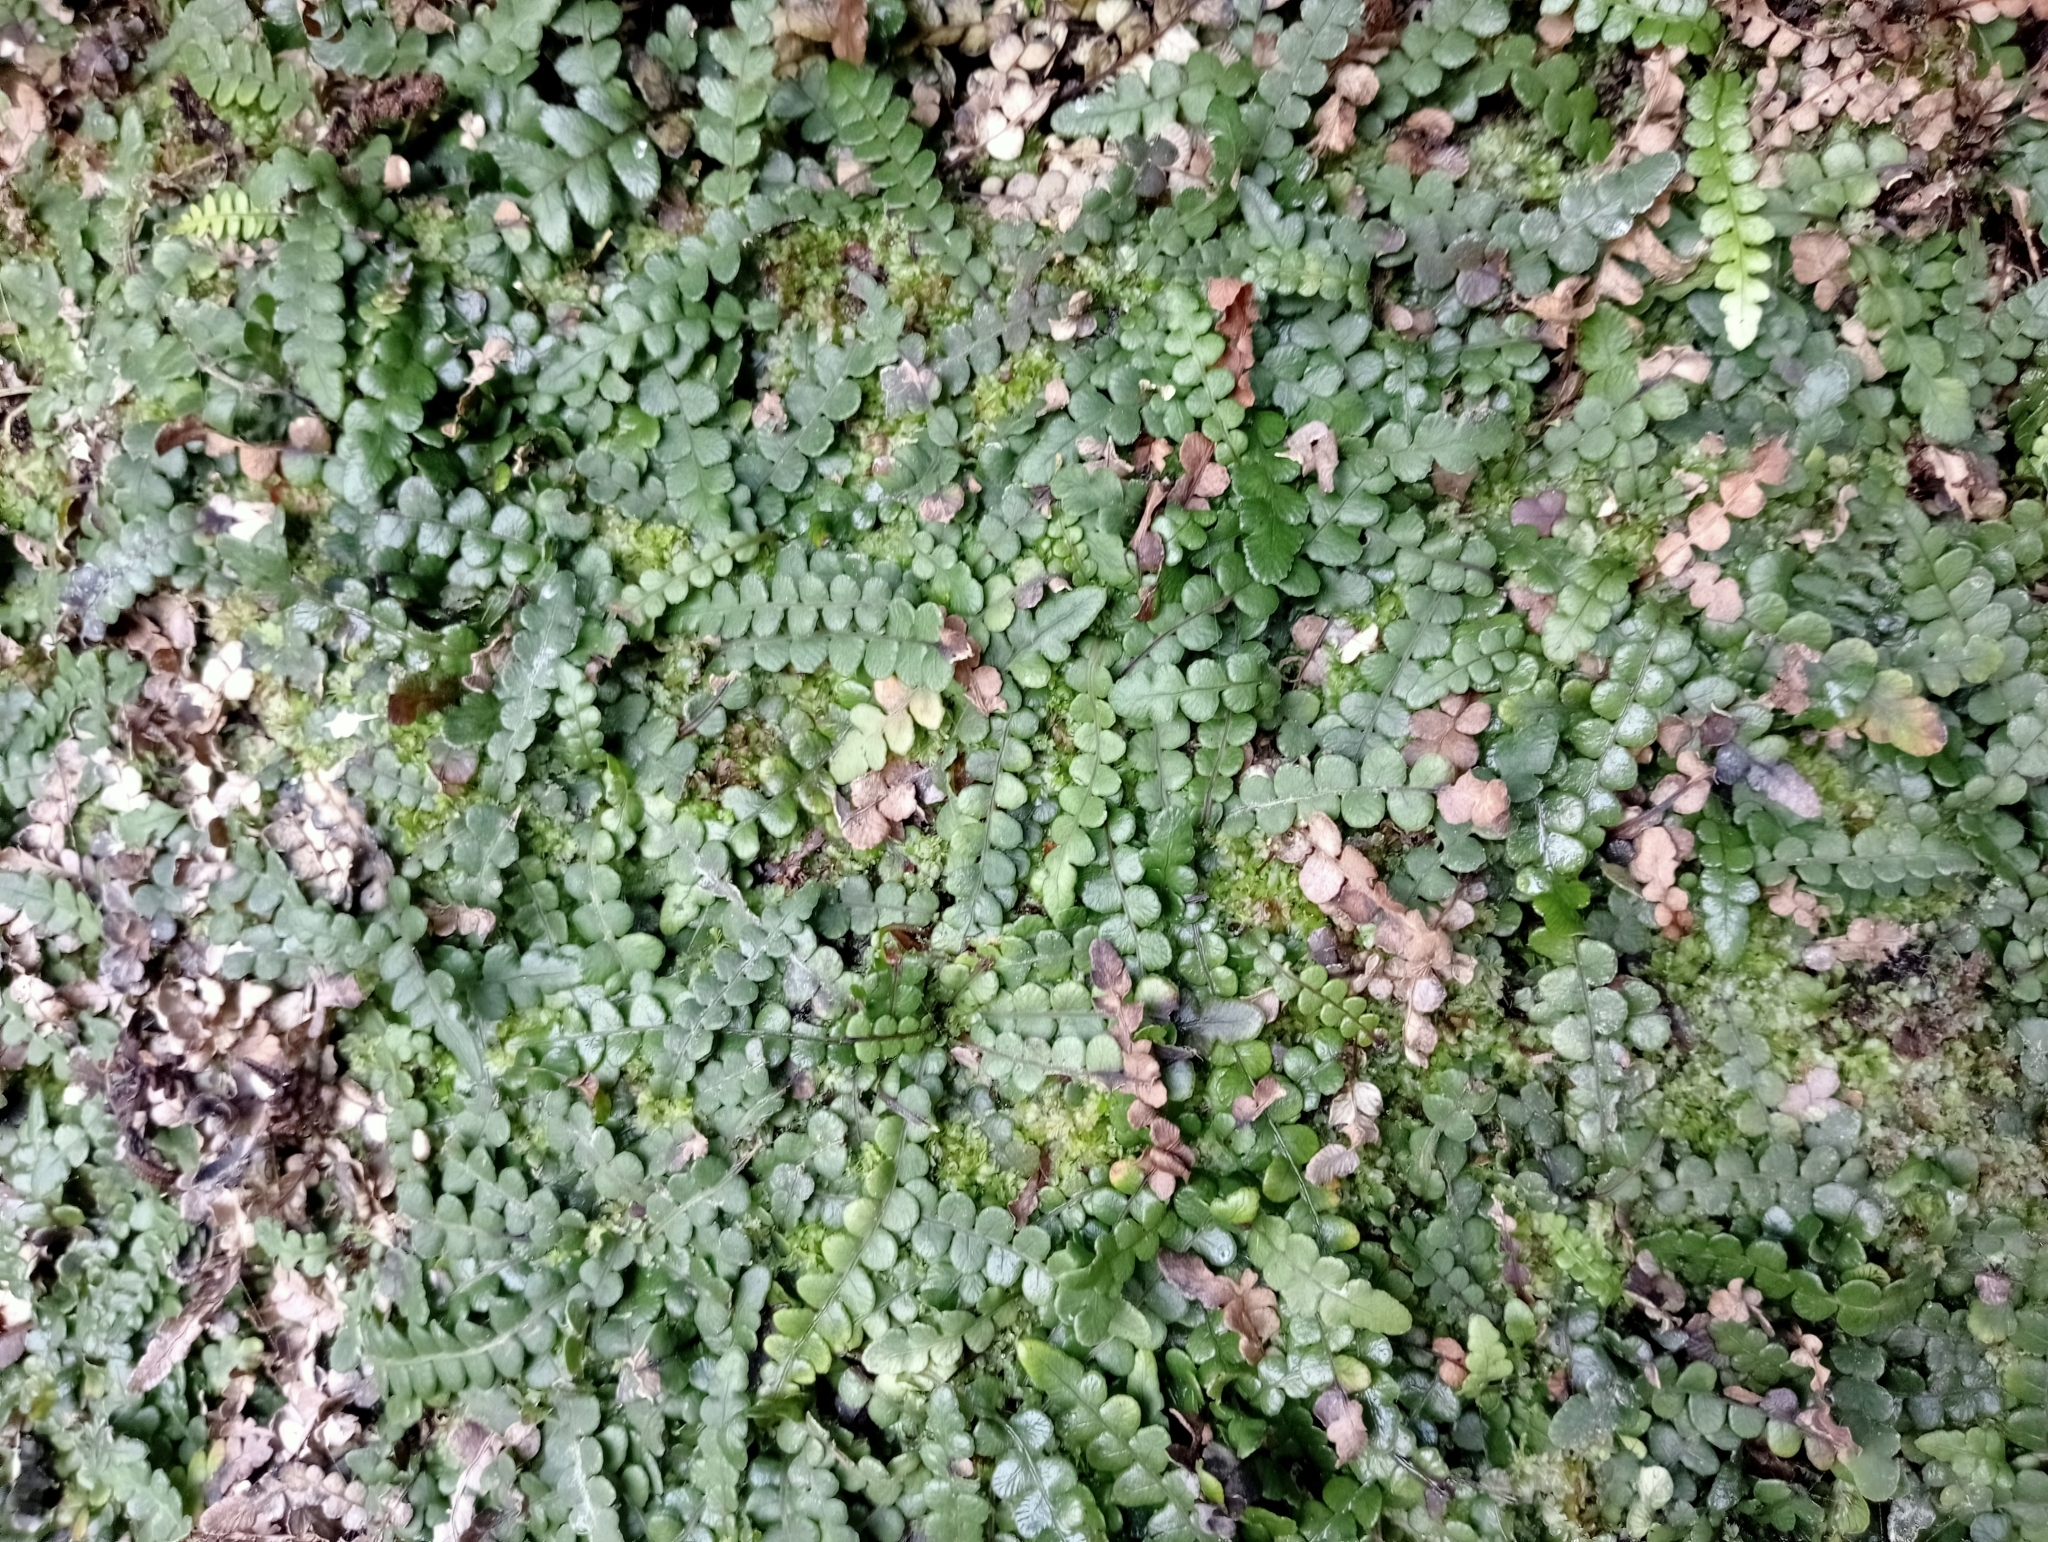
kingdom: Plantae
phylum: Tracheophyta
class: Polypodiopsida
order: Polypodiales
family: Blechnaceae
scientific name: Blechnaceae
